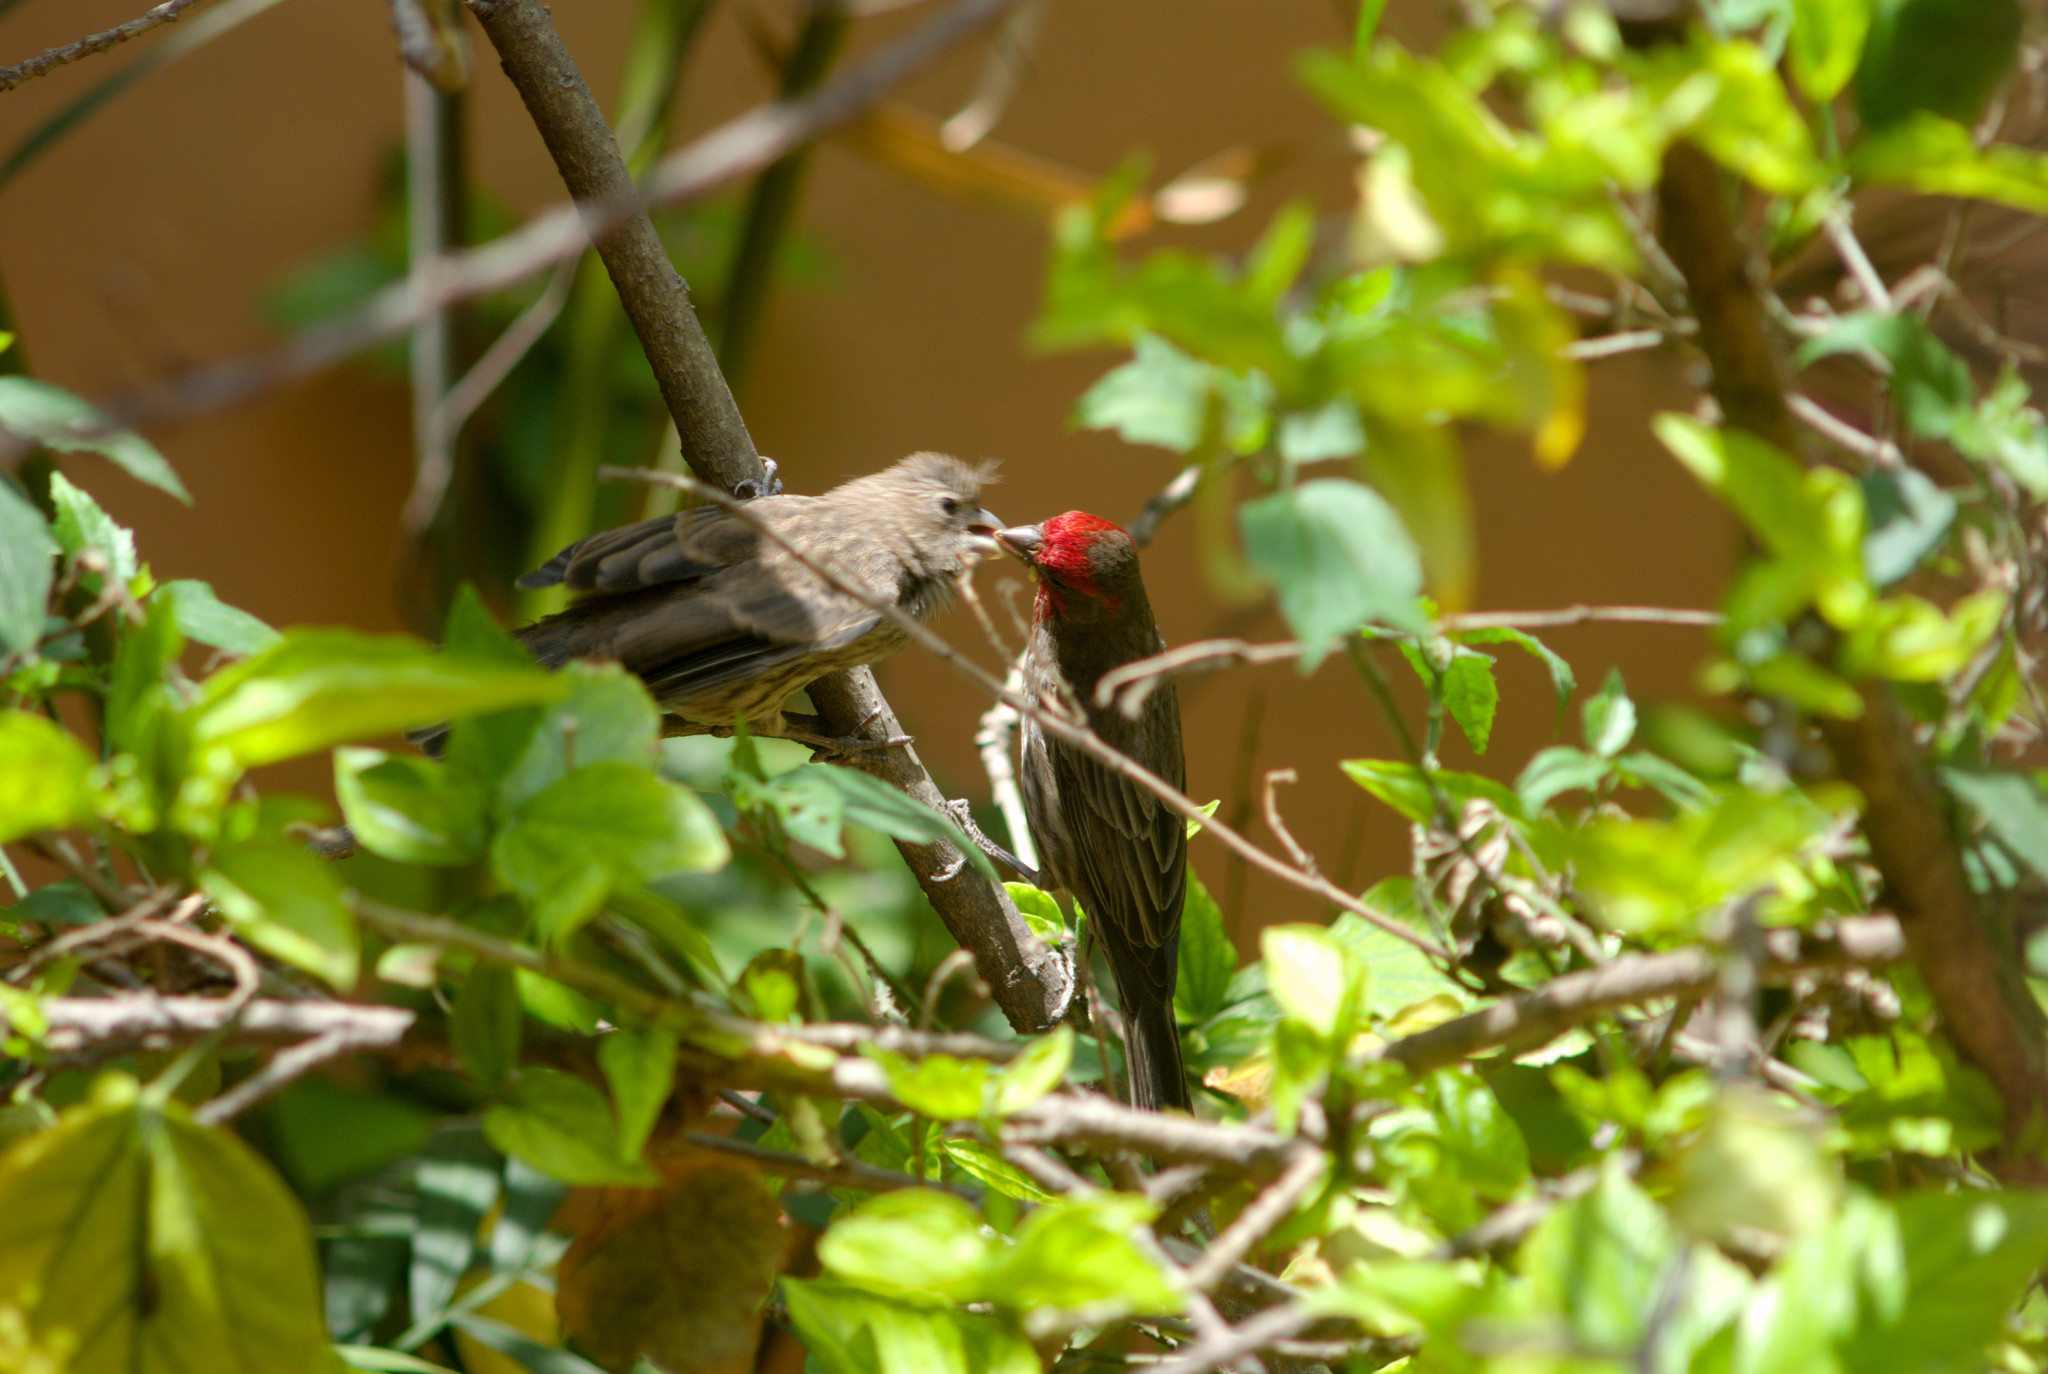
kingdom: Animalia
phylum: Chordata
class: Aves
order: Passeriformes
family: Fringillidae
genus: Haemorhous
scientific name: Haemorhous mexicanus
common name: House finch
